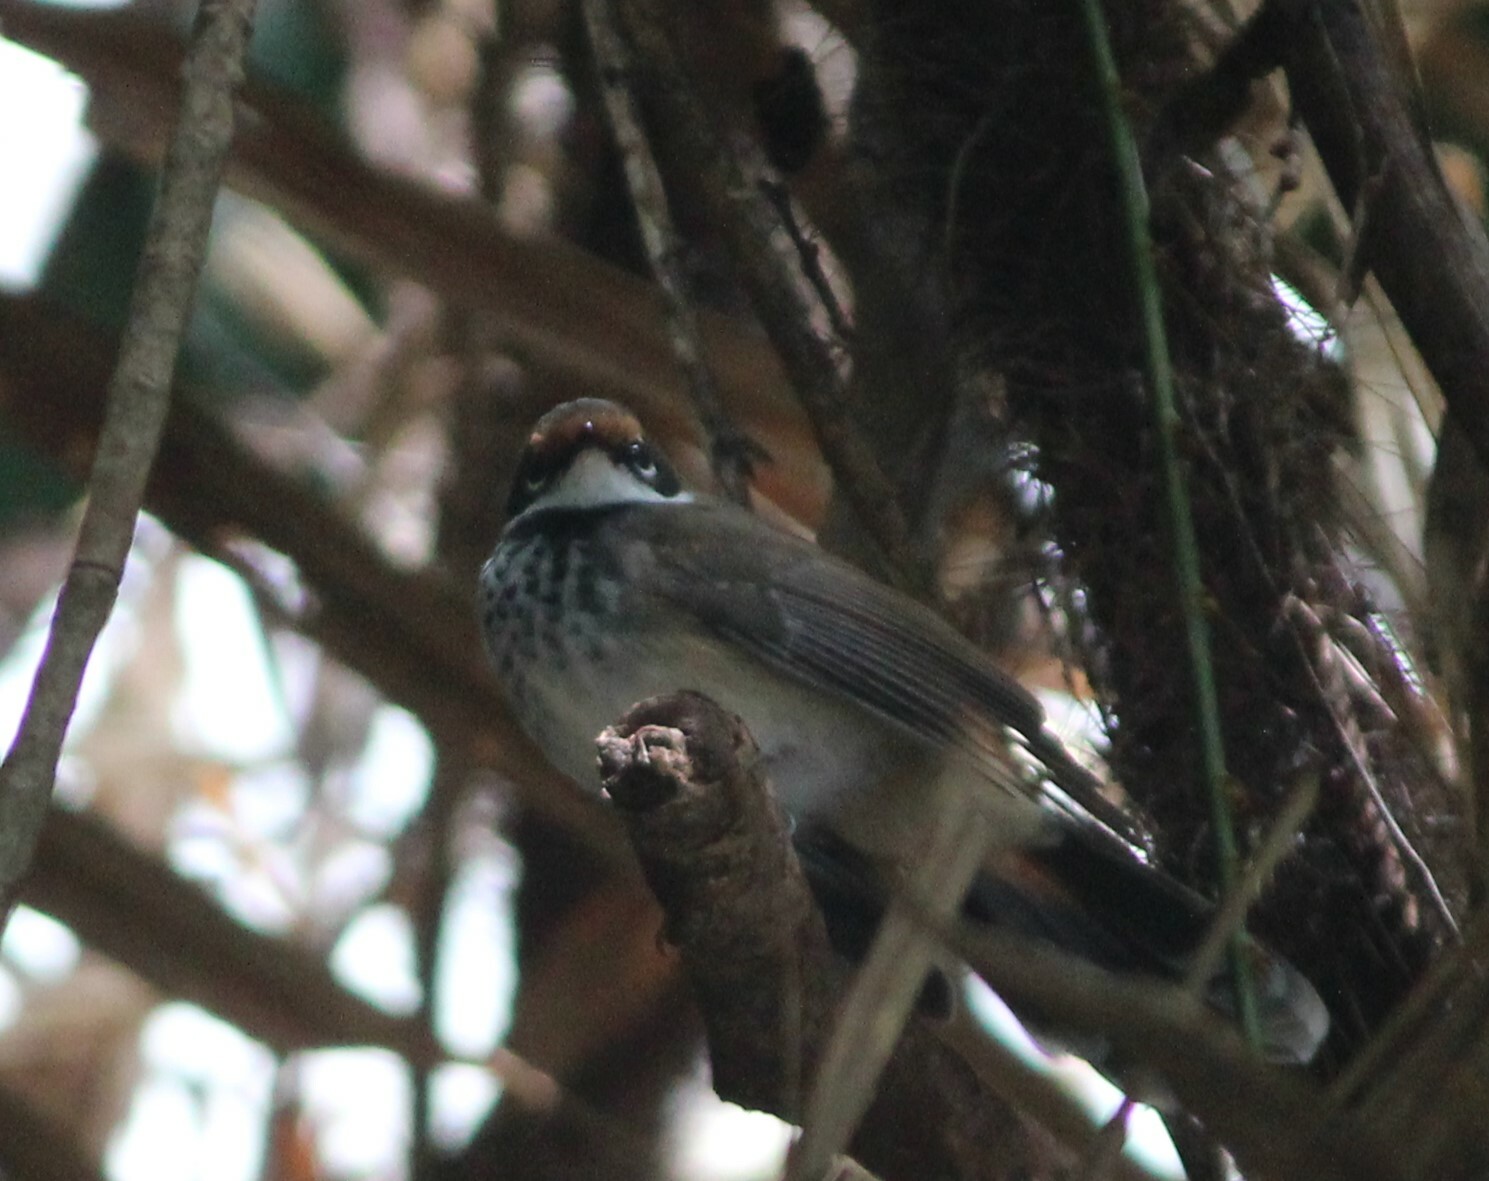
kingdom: Animalia
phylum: Chordata
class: Aves
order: Passeriformes
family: Rhipiduridae
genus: Rhipidura
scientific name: Rhipidura rufifrons
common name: Rufous fantail
